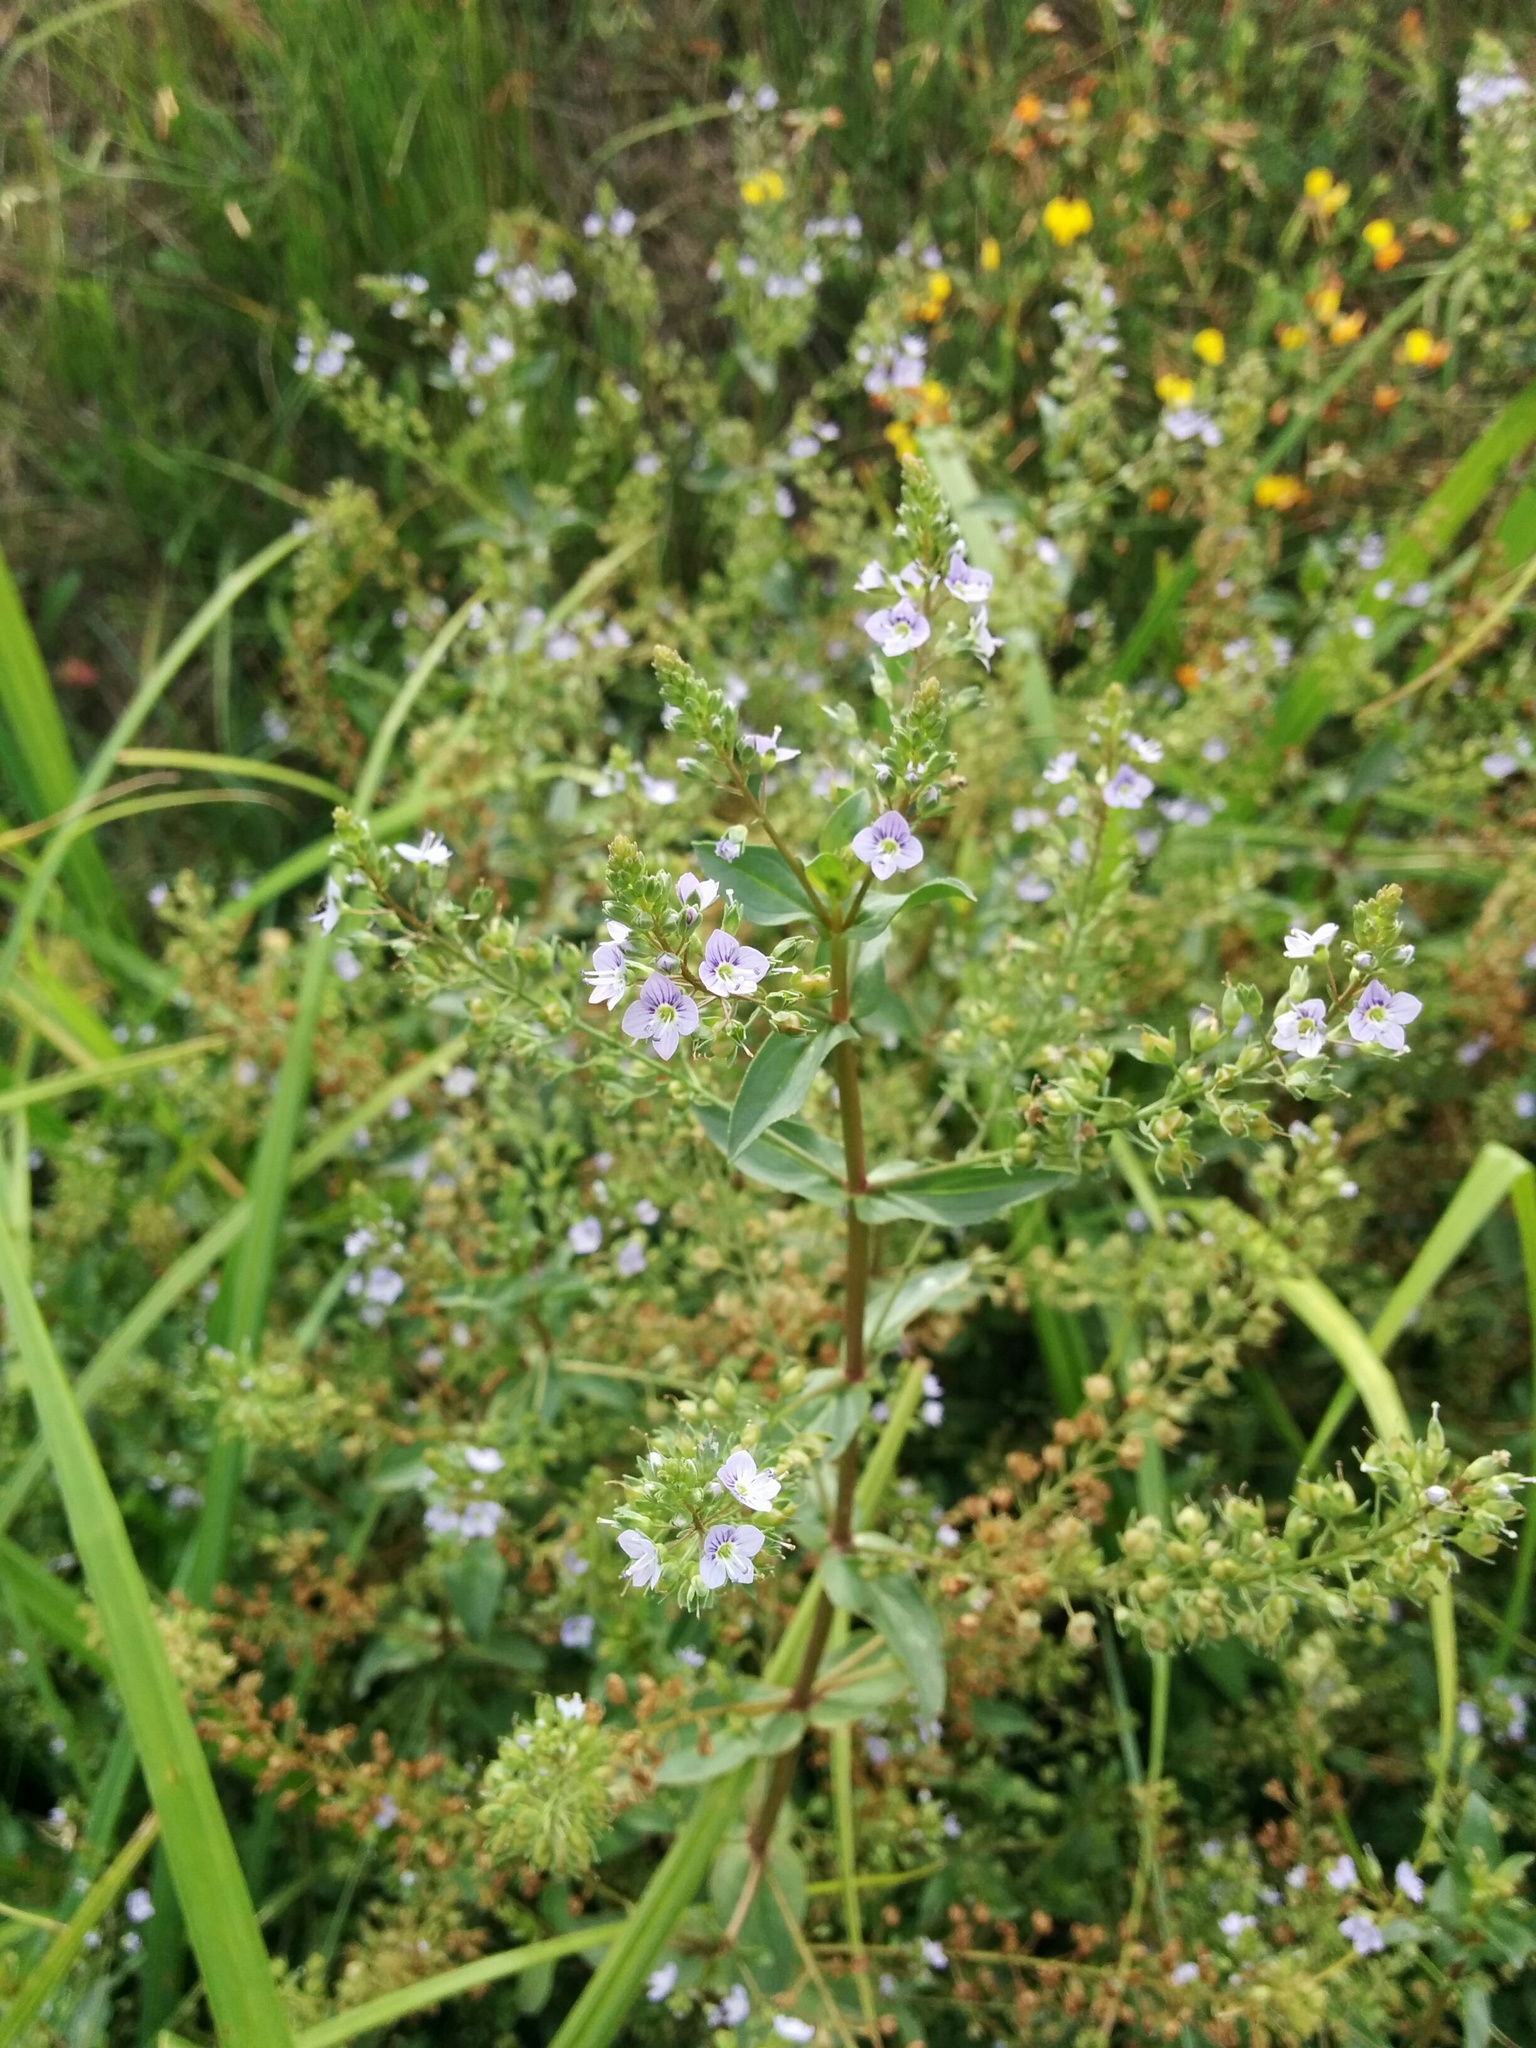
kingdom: Plantae
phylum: Tracheophyta
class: Magnoliopsida
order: Lamiales
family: Plantaginaceae
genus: Veronica
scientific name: Veronica anagallis-aquatica
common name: Water speedwell
